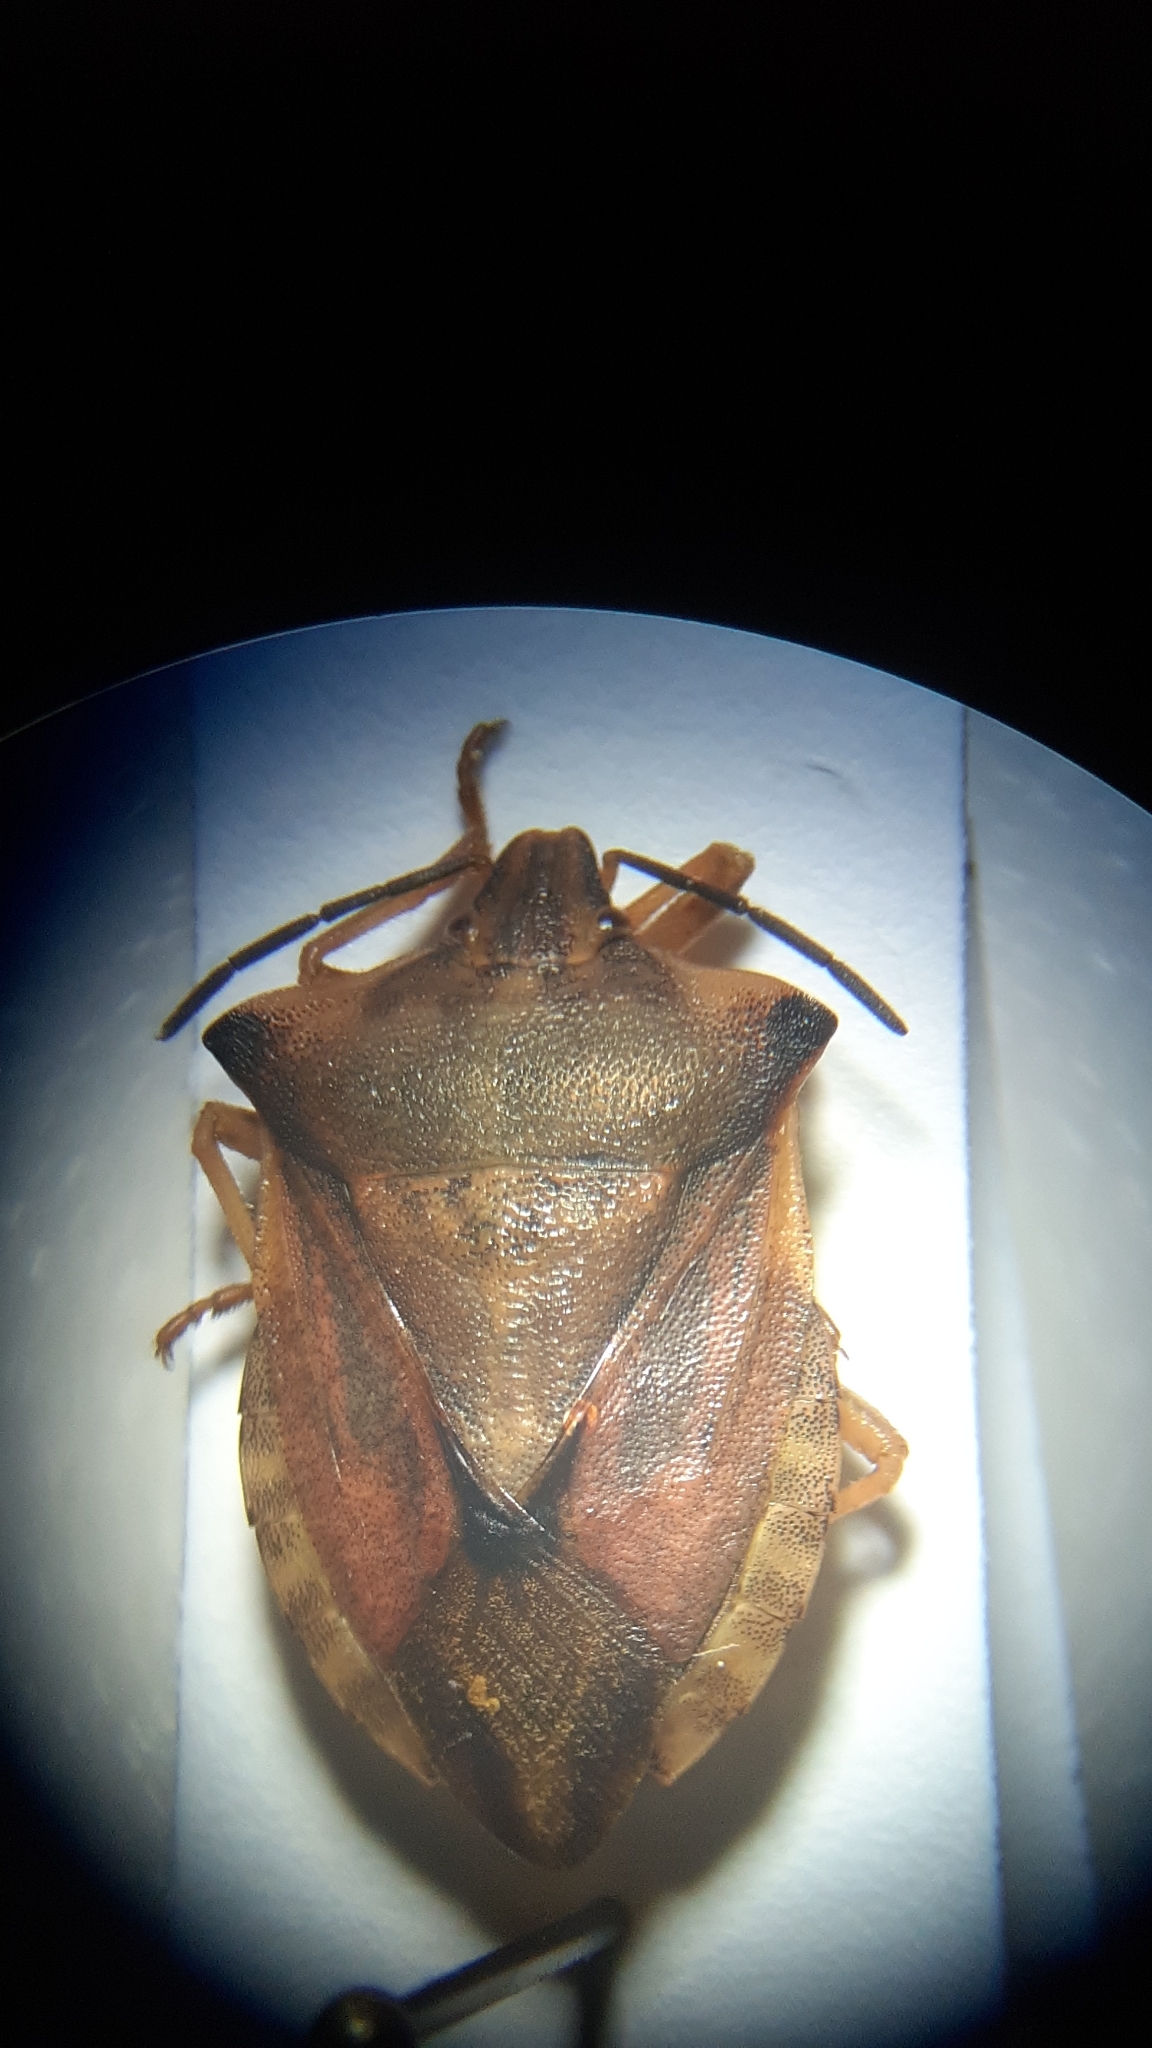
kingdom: Animalia
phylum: Arthropoda
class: Insecta
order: Hemiptera
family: Pentatomidae
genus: Carpocoris
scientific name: Carpocoris fuscispinus
